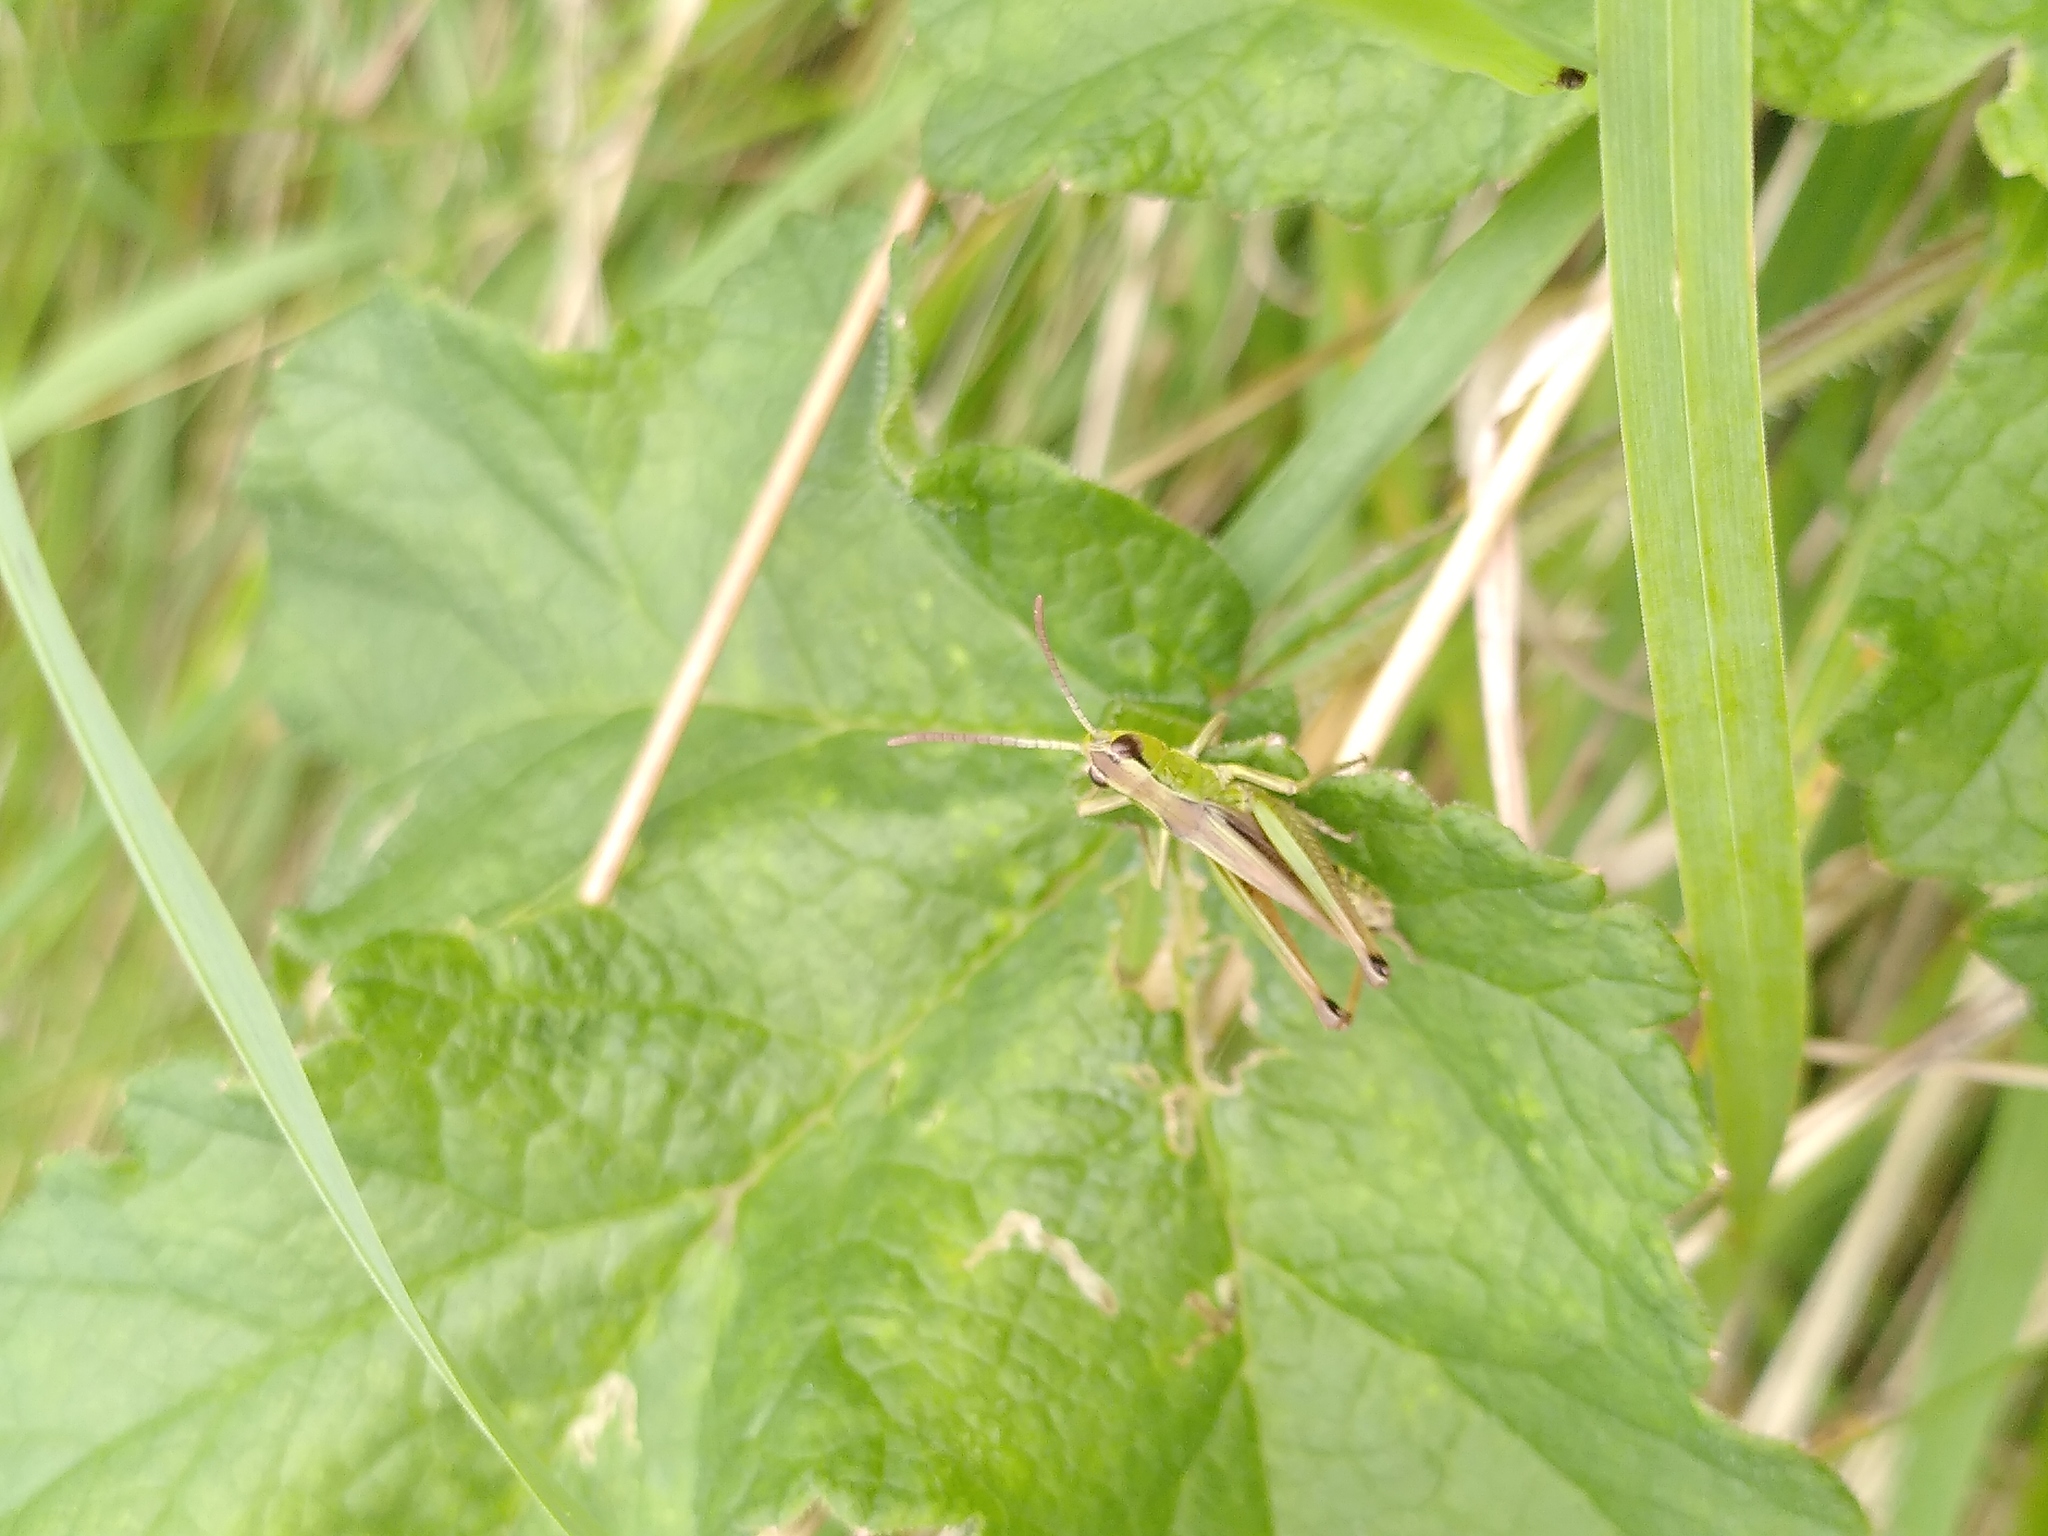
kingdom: Animalia
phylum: Arthropoda
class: Insecta
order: Orthoptera
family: Acrididae
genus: Pseudochorthippus
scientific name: Pseudochorthippus parallelus
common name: Meadow grasshopper
